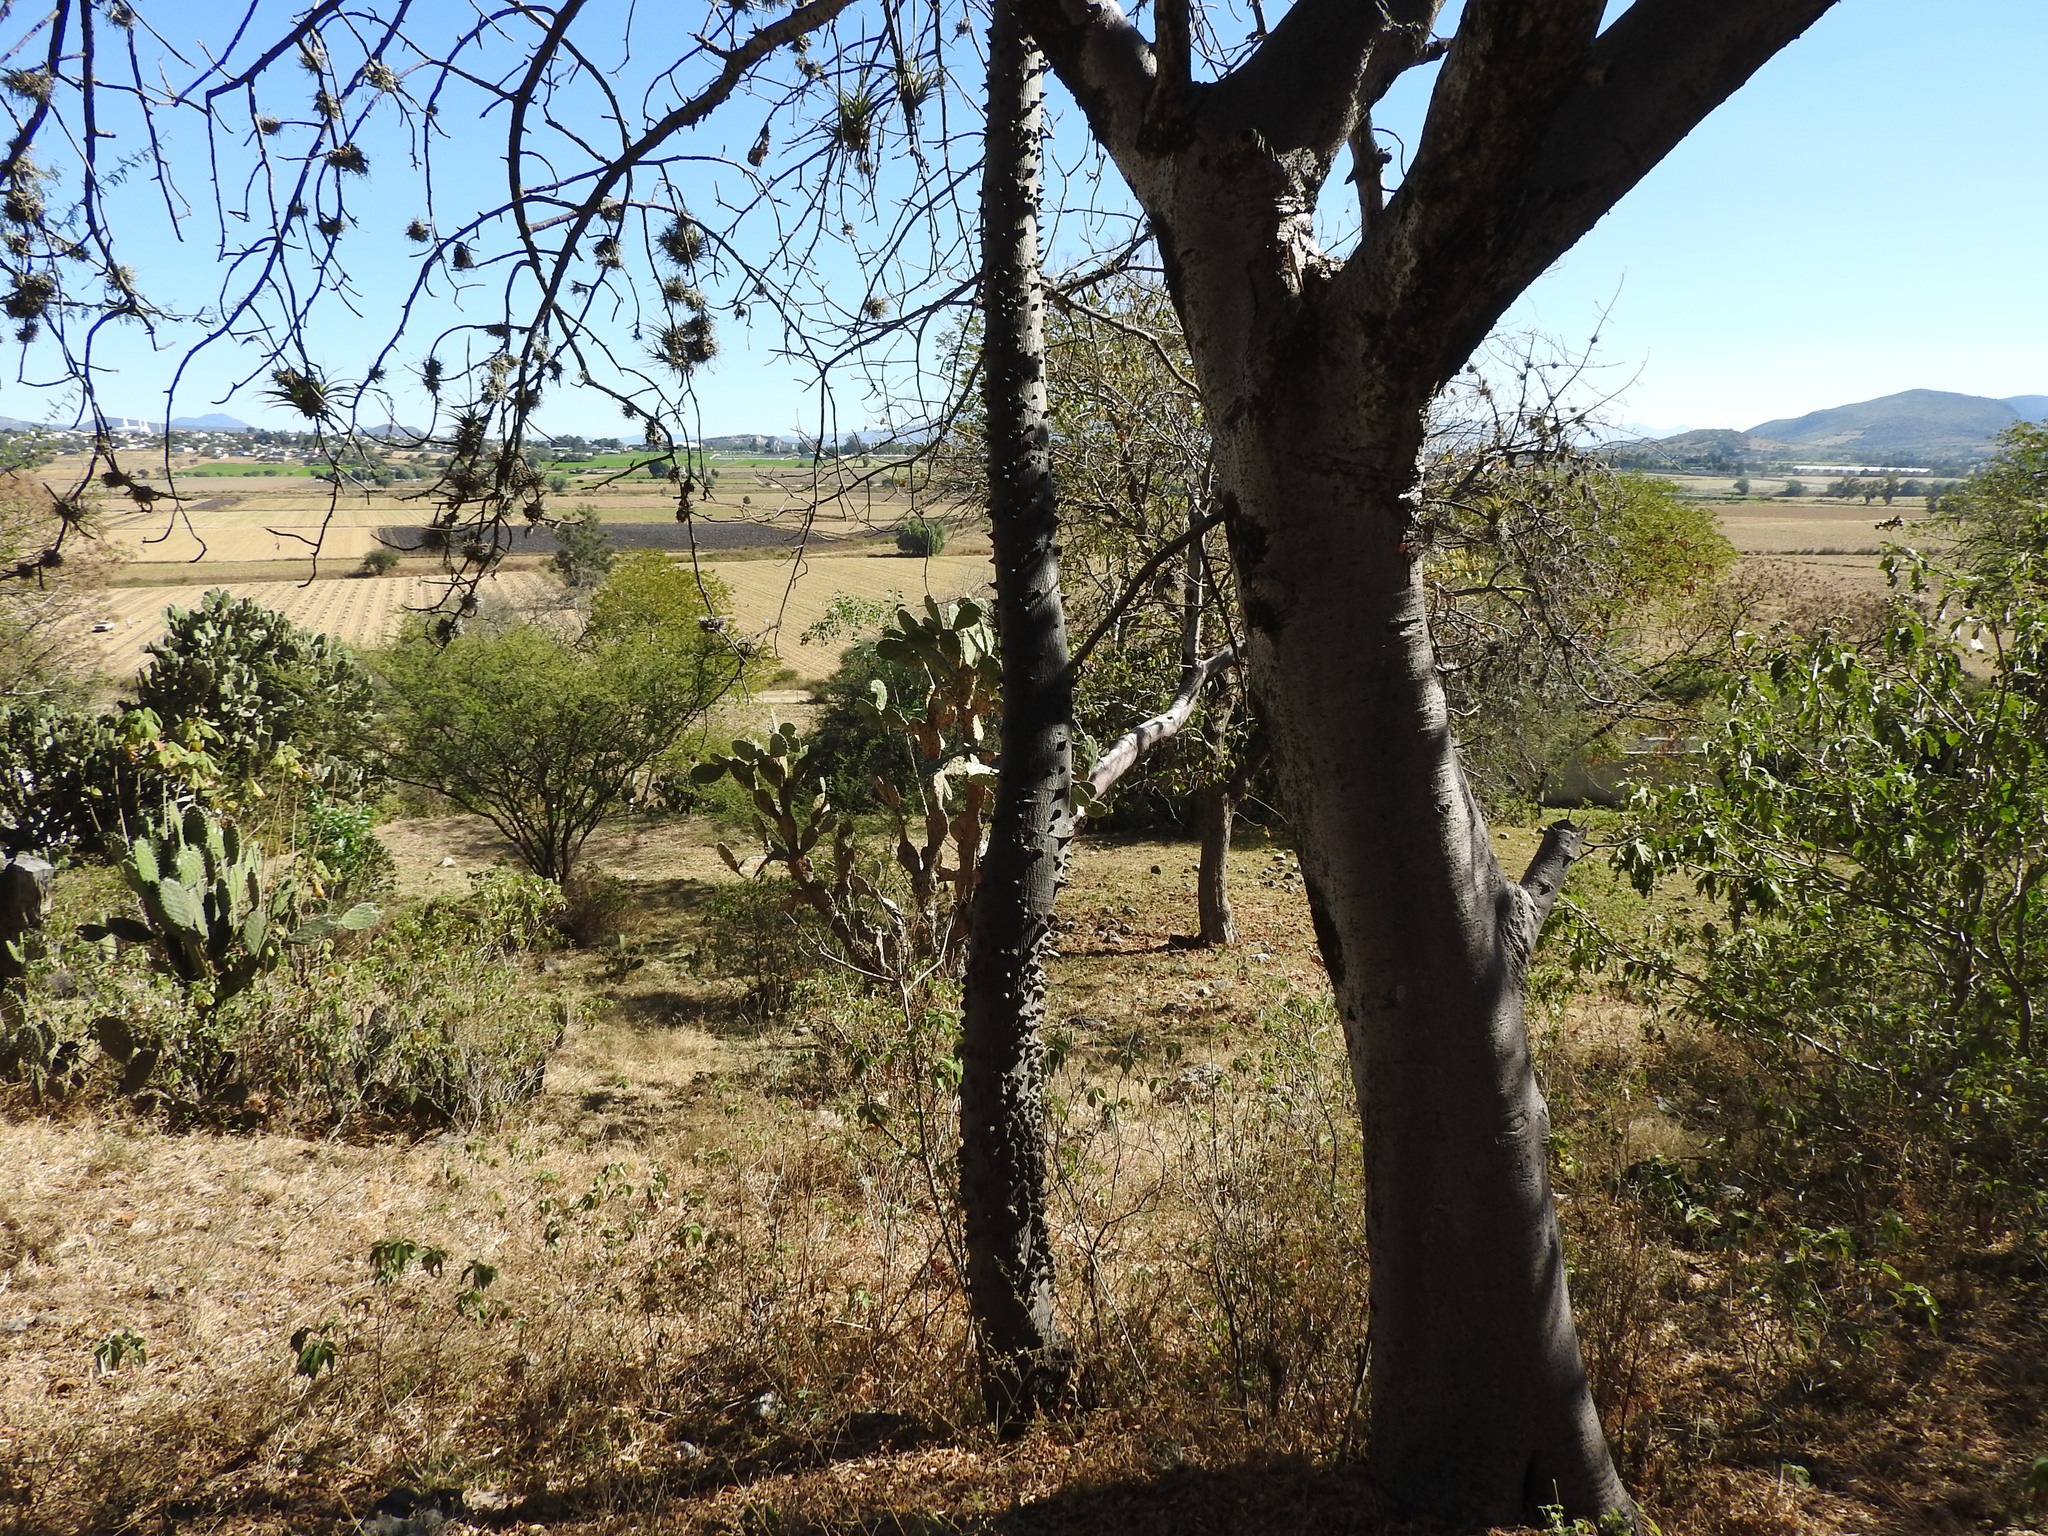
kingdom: Plantae
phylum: Tracheophyta
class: Magnoliopsida
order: Malvales
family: Malvaceae
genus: Ceiba
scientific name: Ceiba aesculifolia
